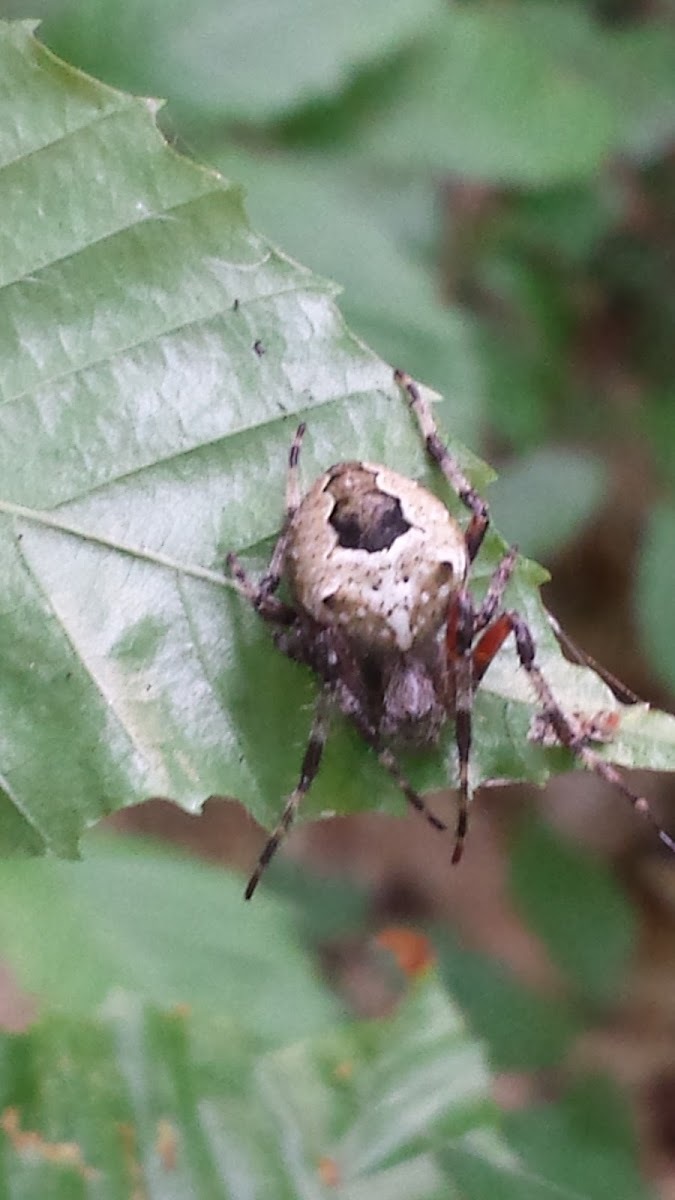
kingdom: Animalia
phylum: Arthropoda
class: Arachnida
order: Araneae
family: Araneidae
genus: Araneus
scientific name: Araneus nordmanni
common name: Nordmann's orbweaver
